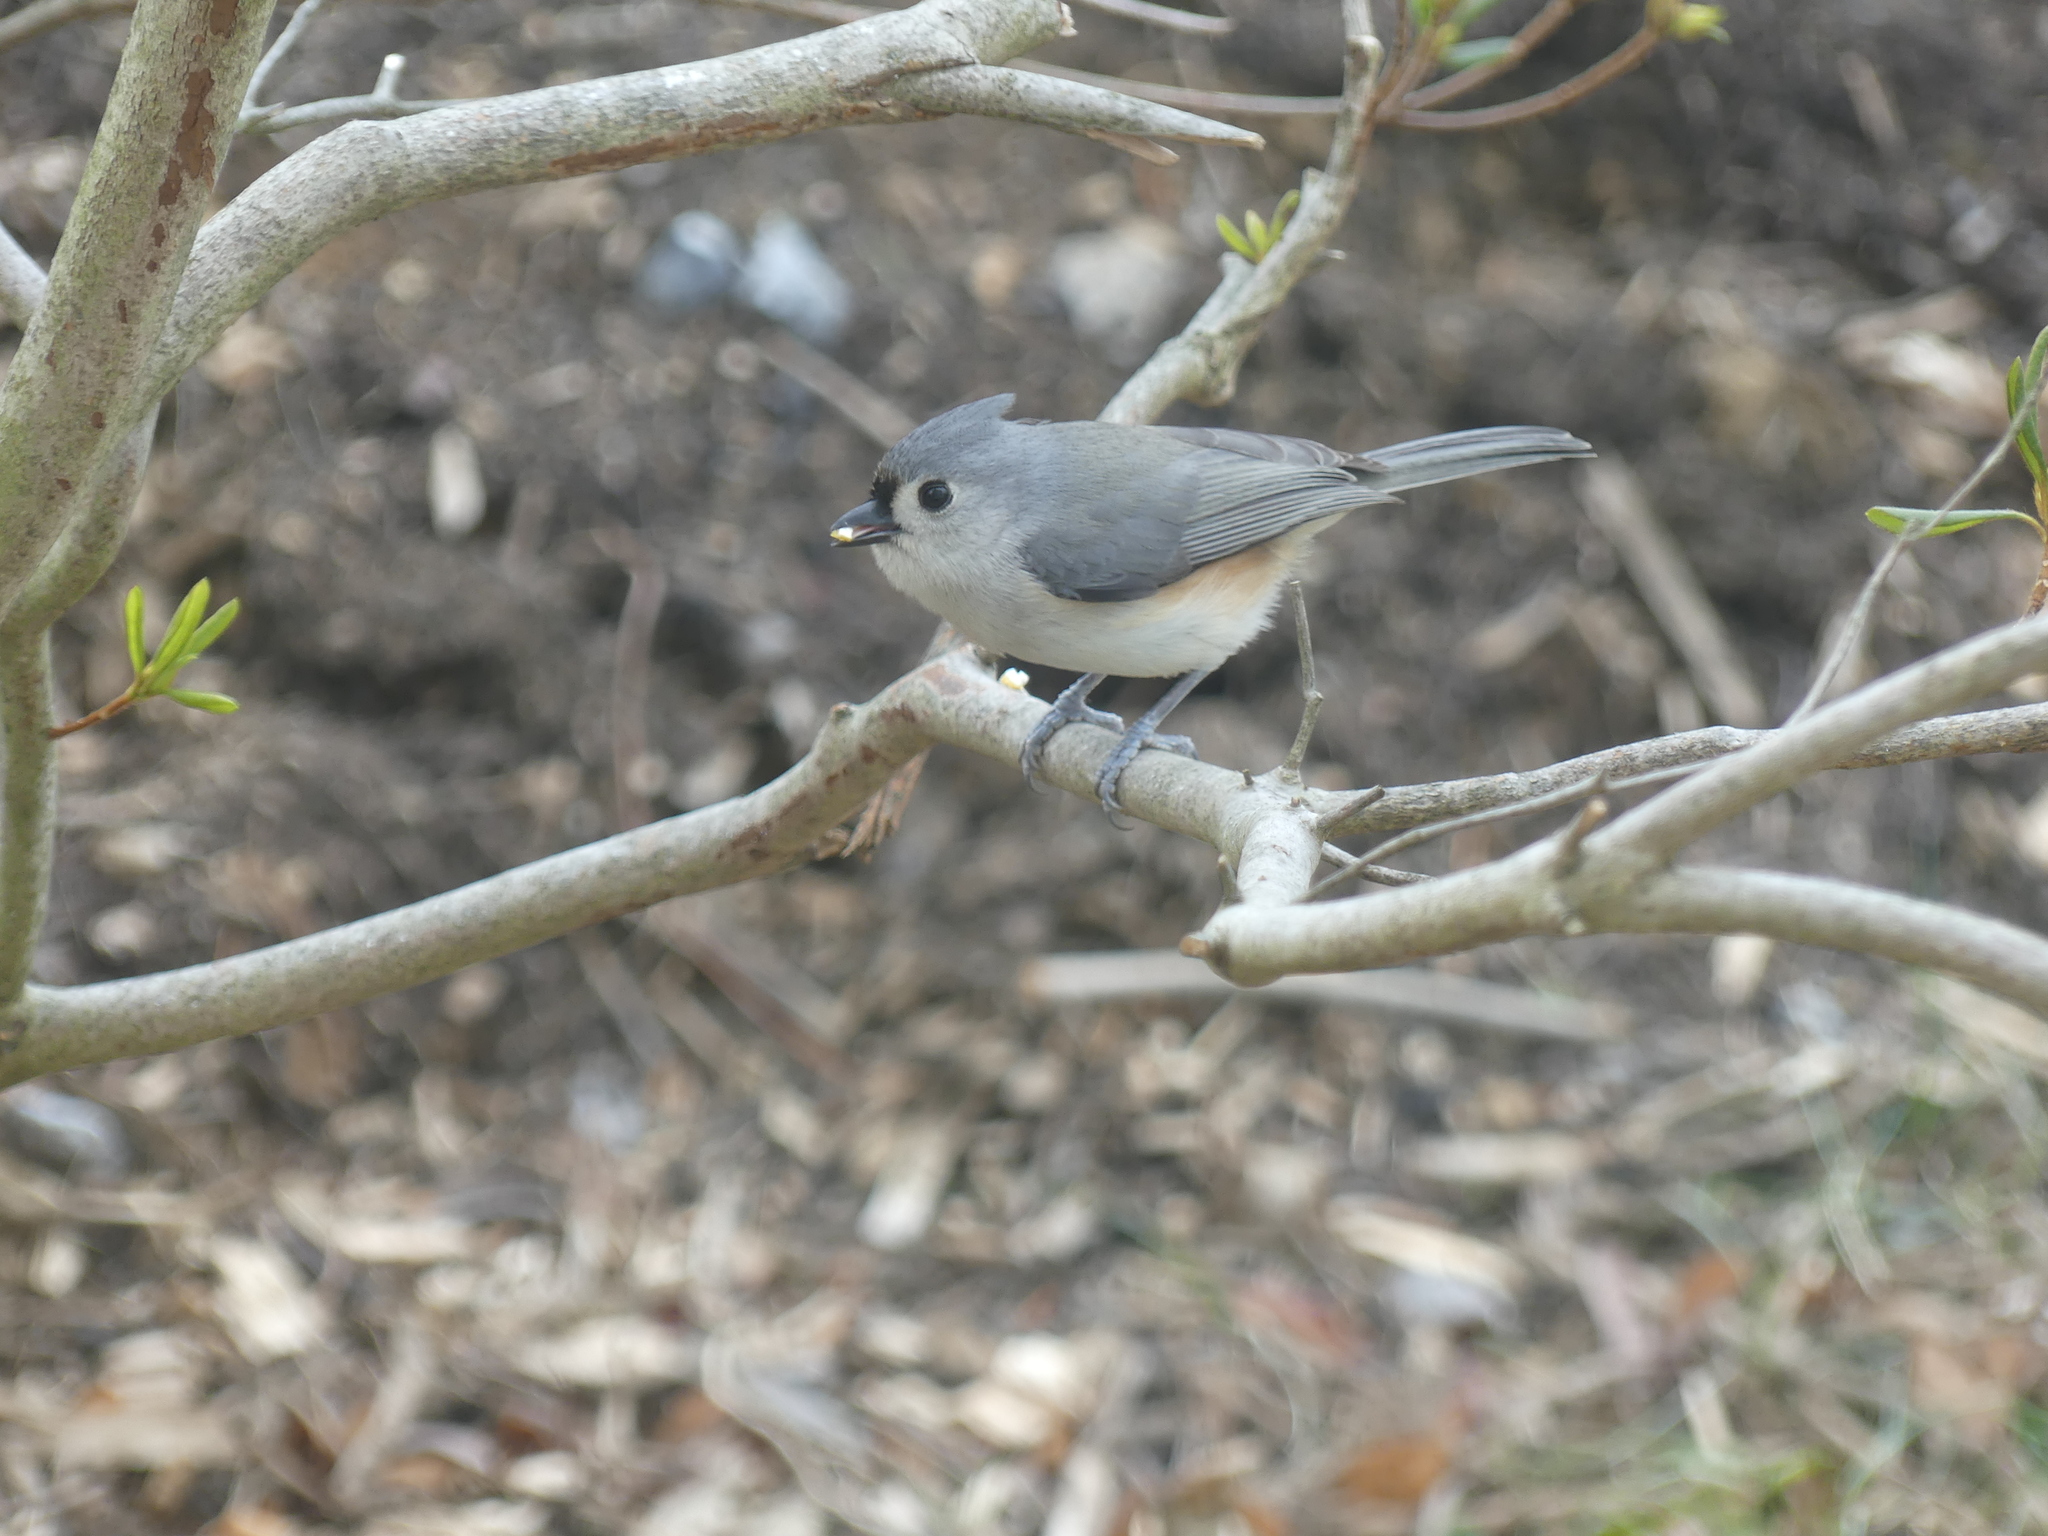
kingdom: Animalia
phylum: Chordata
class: Aves
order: Passeriformes
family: Paridae
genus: Baeolophus
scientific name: Baeolophus bicolor
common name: Tufted titmouse
